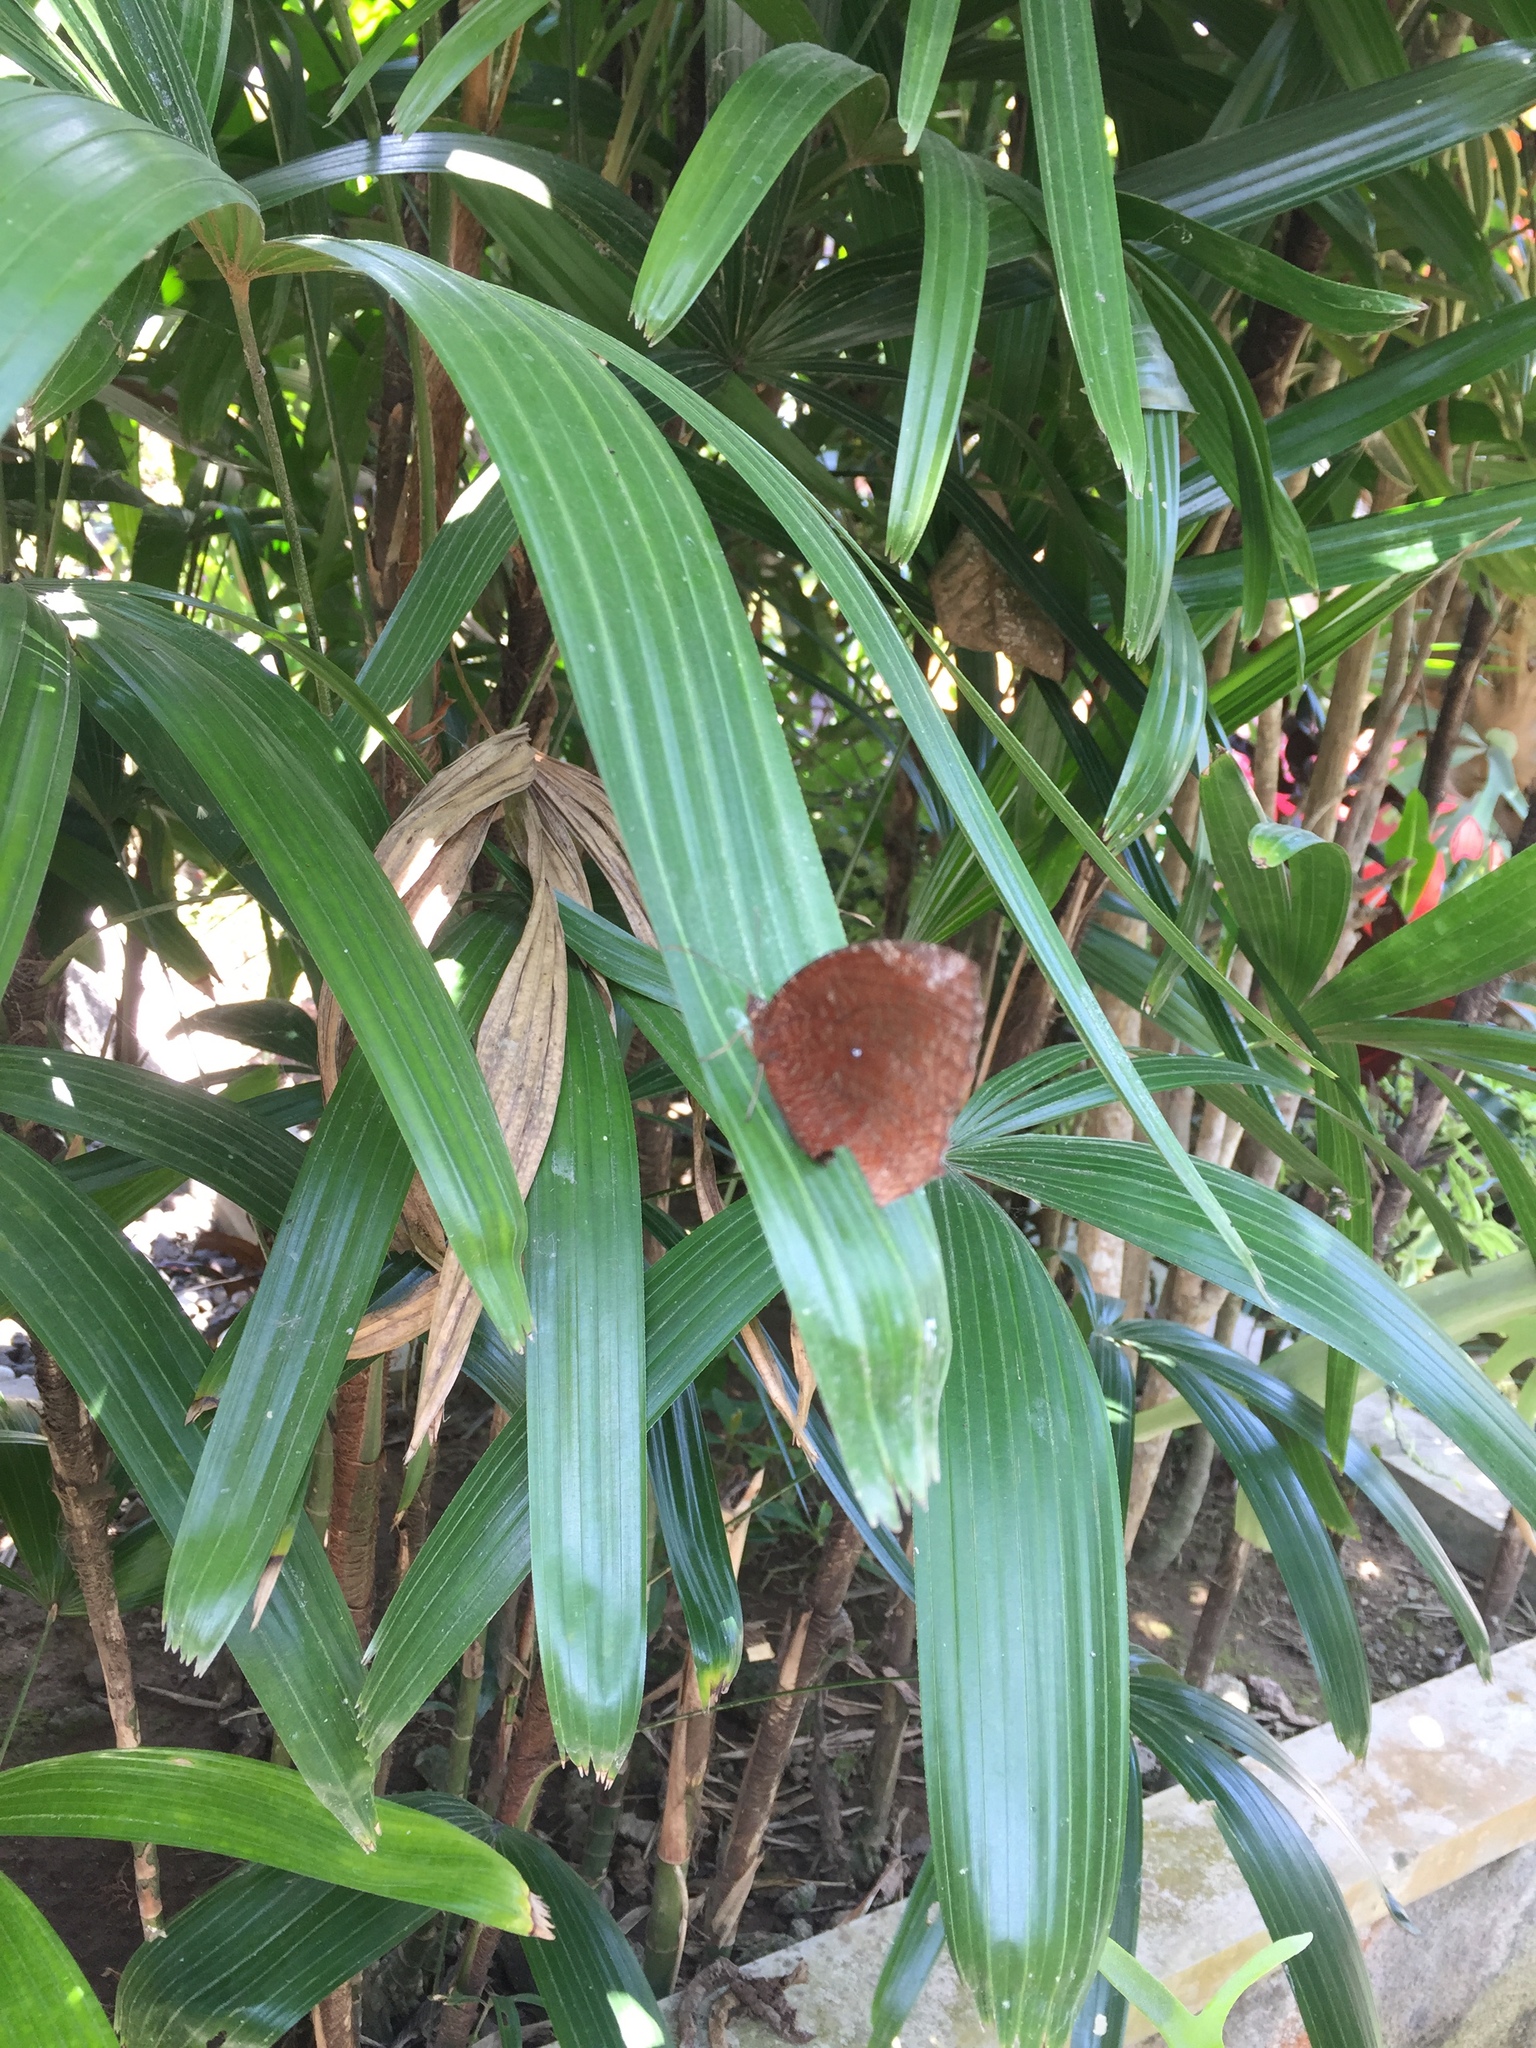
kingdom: Animalia
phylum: Arthropoda
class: Insecta
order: Lepidoptera
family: Nymphalidae
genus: Elymnias
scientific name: Elymnias hypermnestra
